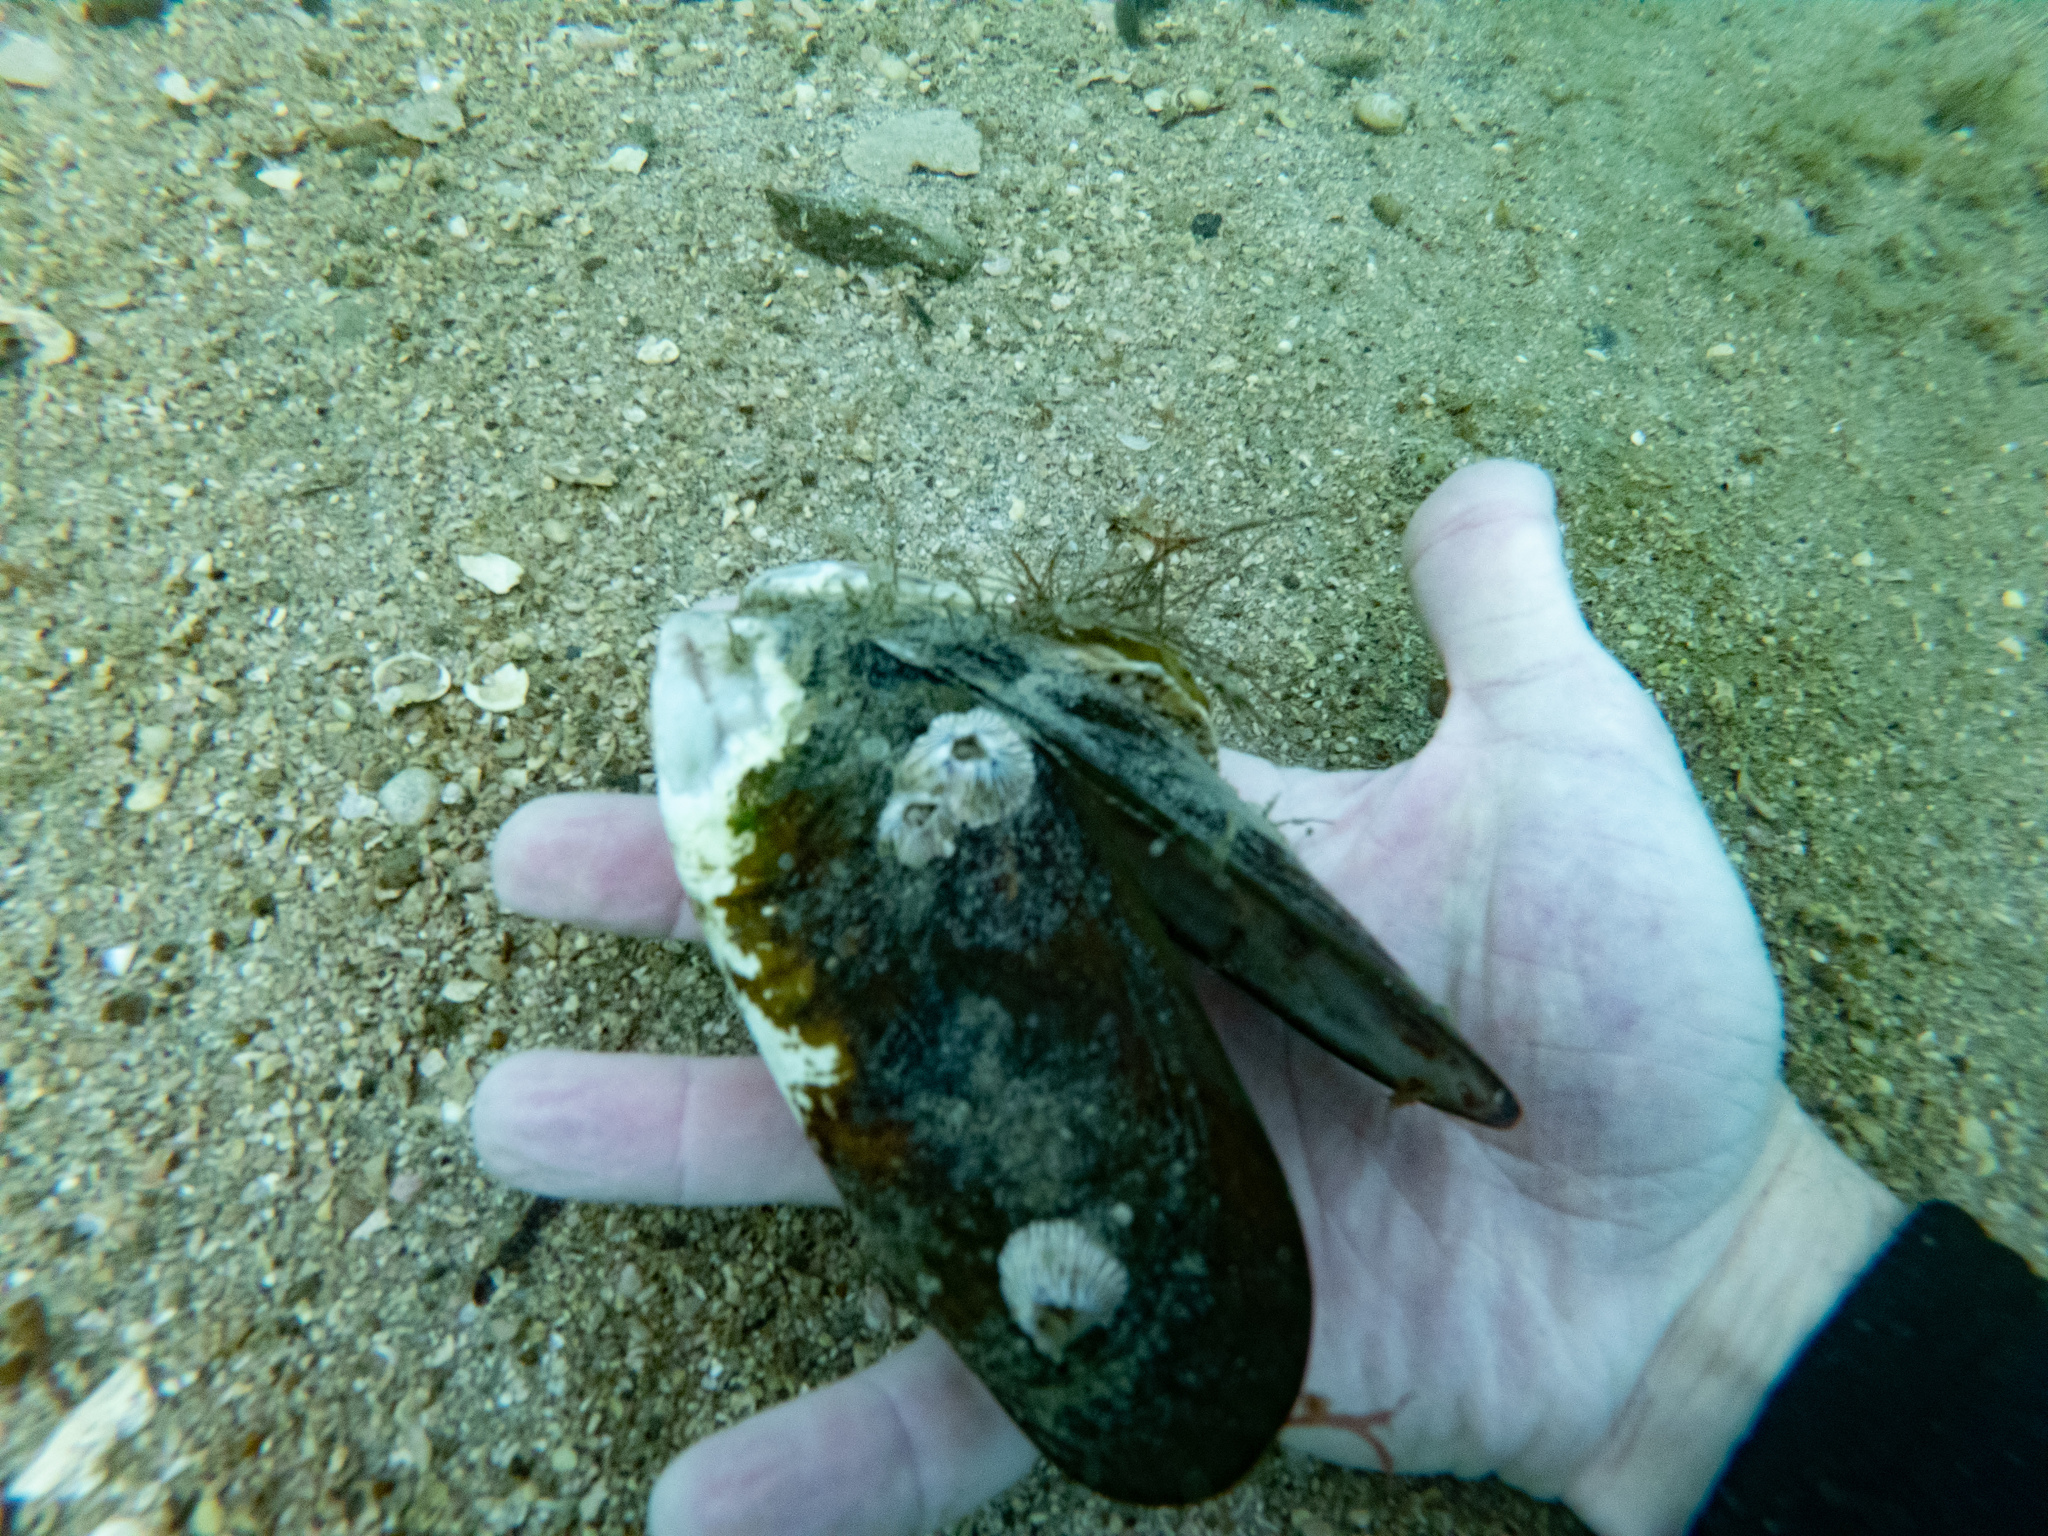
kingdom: Animalia
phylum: Mollusca
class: Bivalvia
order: Mytilida
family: Mytilidae
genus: Perna
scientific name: Perna canaliculus
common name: New zealand greenshelltm
